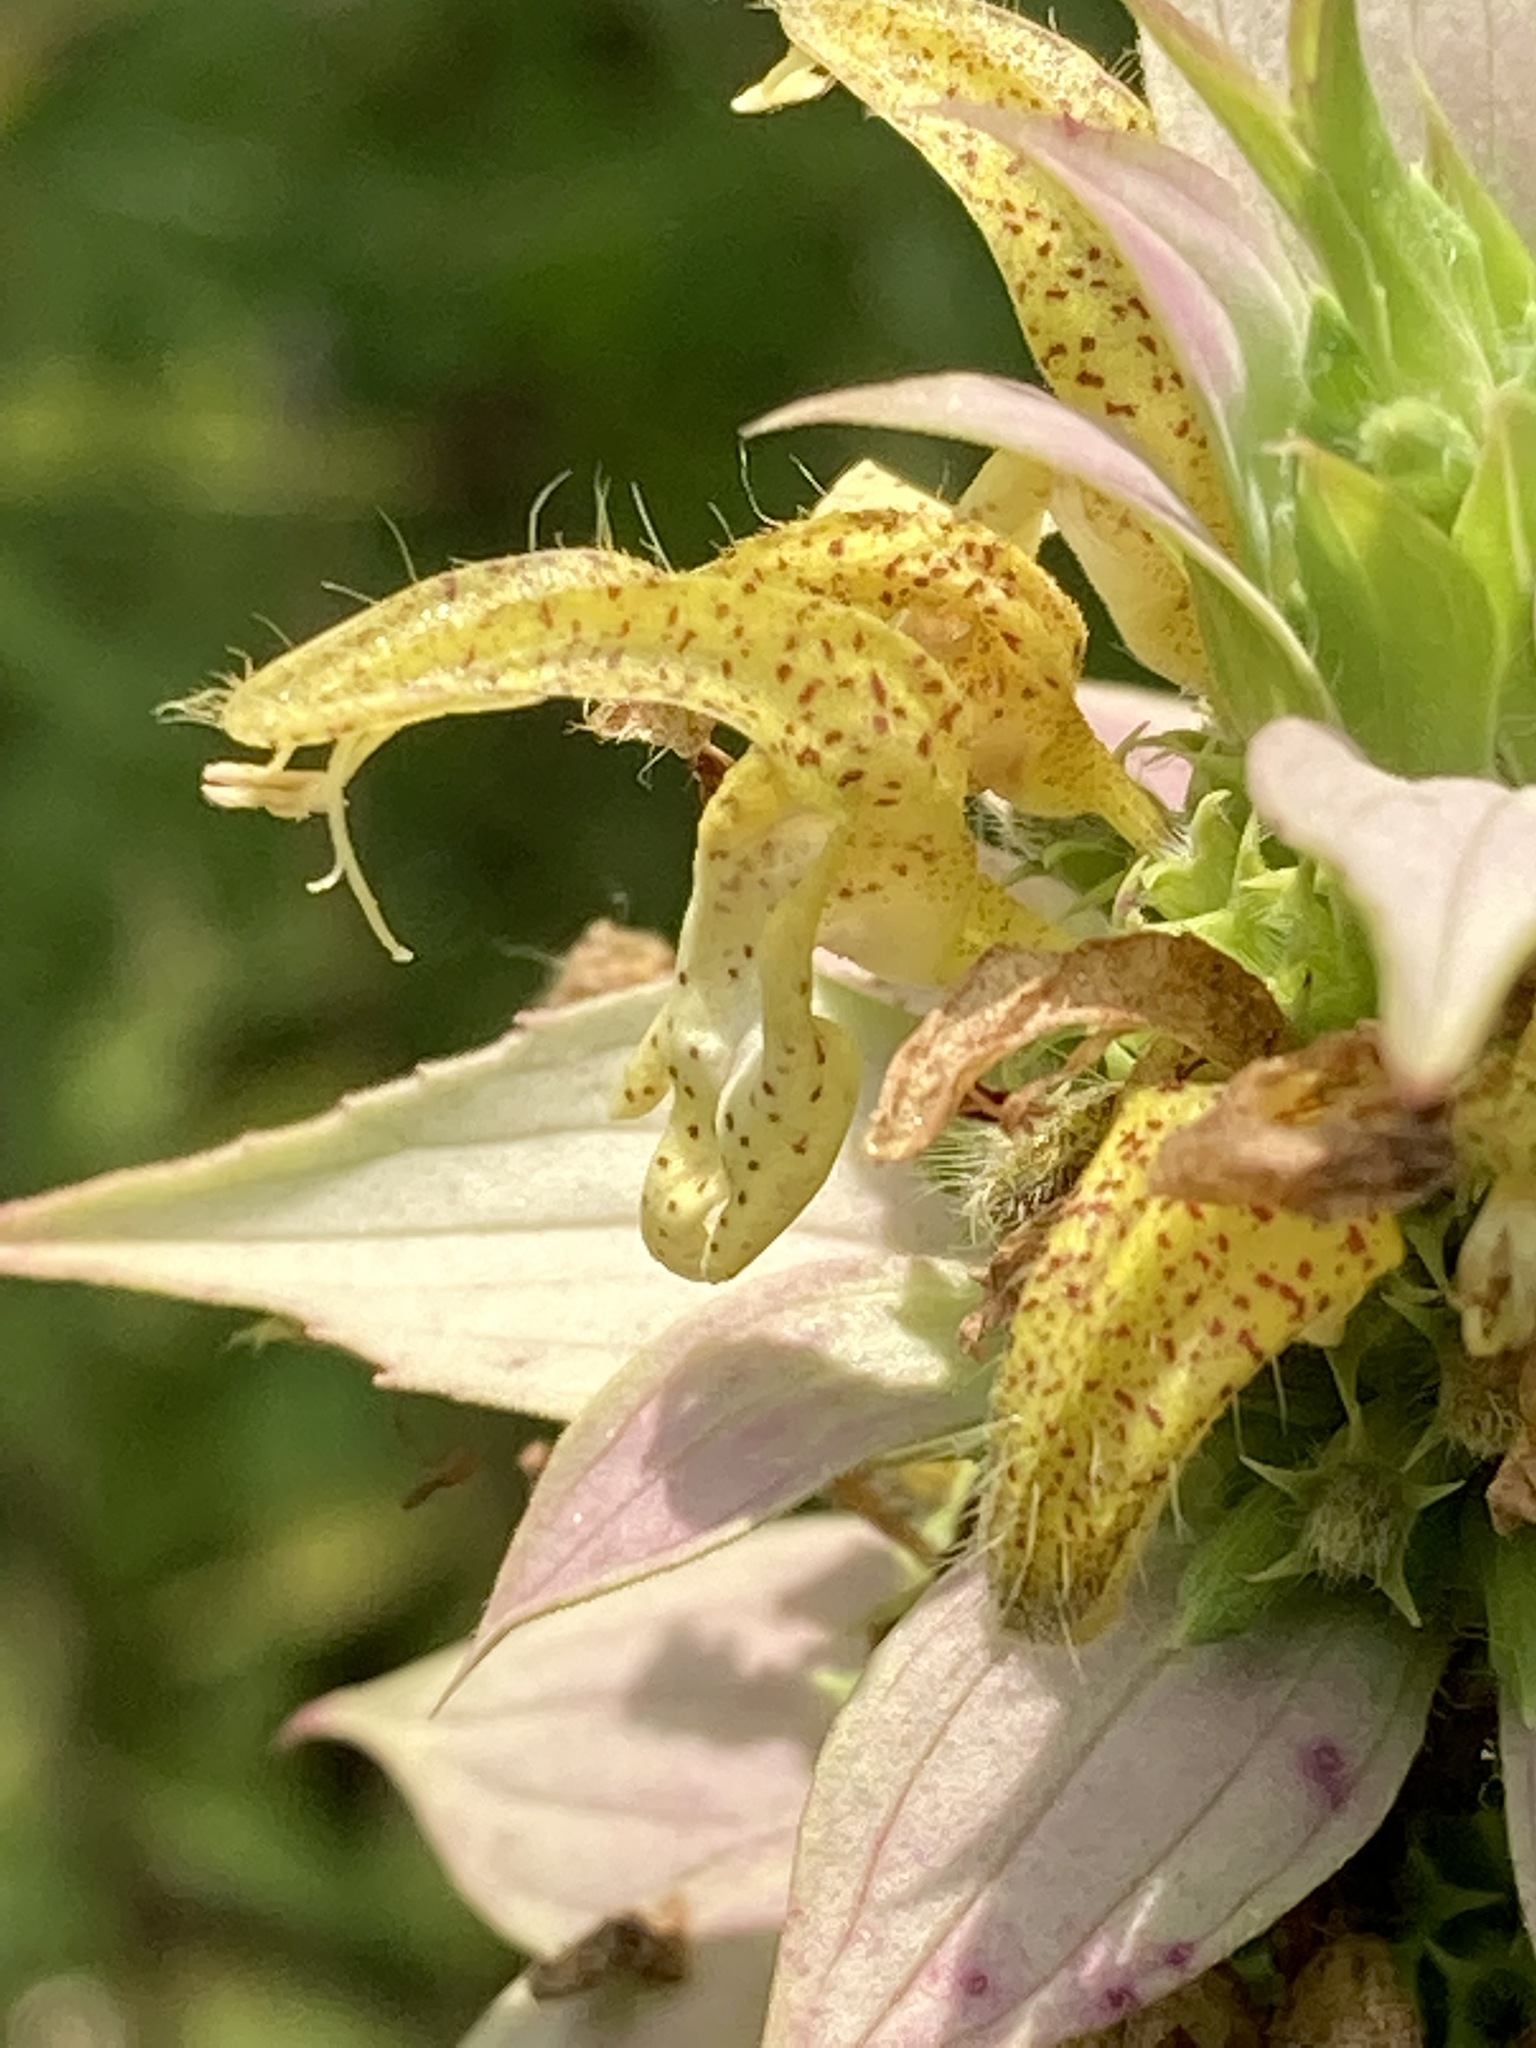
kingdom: Plantae
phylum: Tracheophyta
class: Magnoliopsida
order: Lamiales
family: Lamiaceae
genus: Monarda
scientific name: Monarda punctata
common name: Dotted monarda
